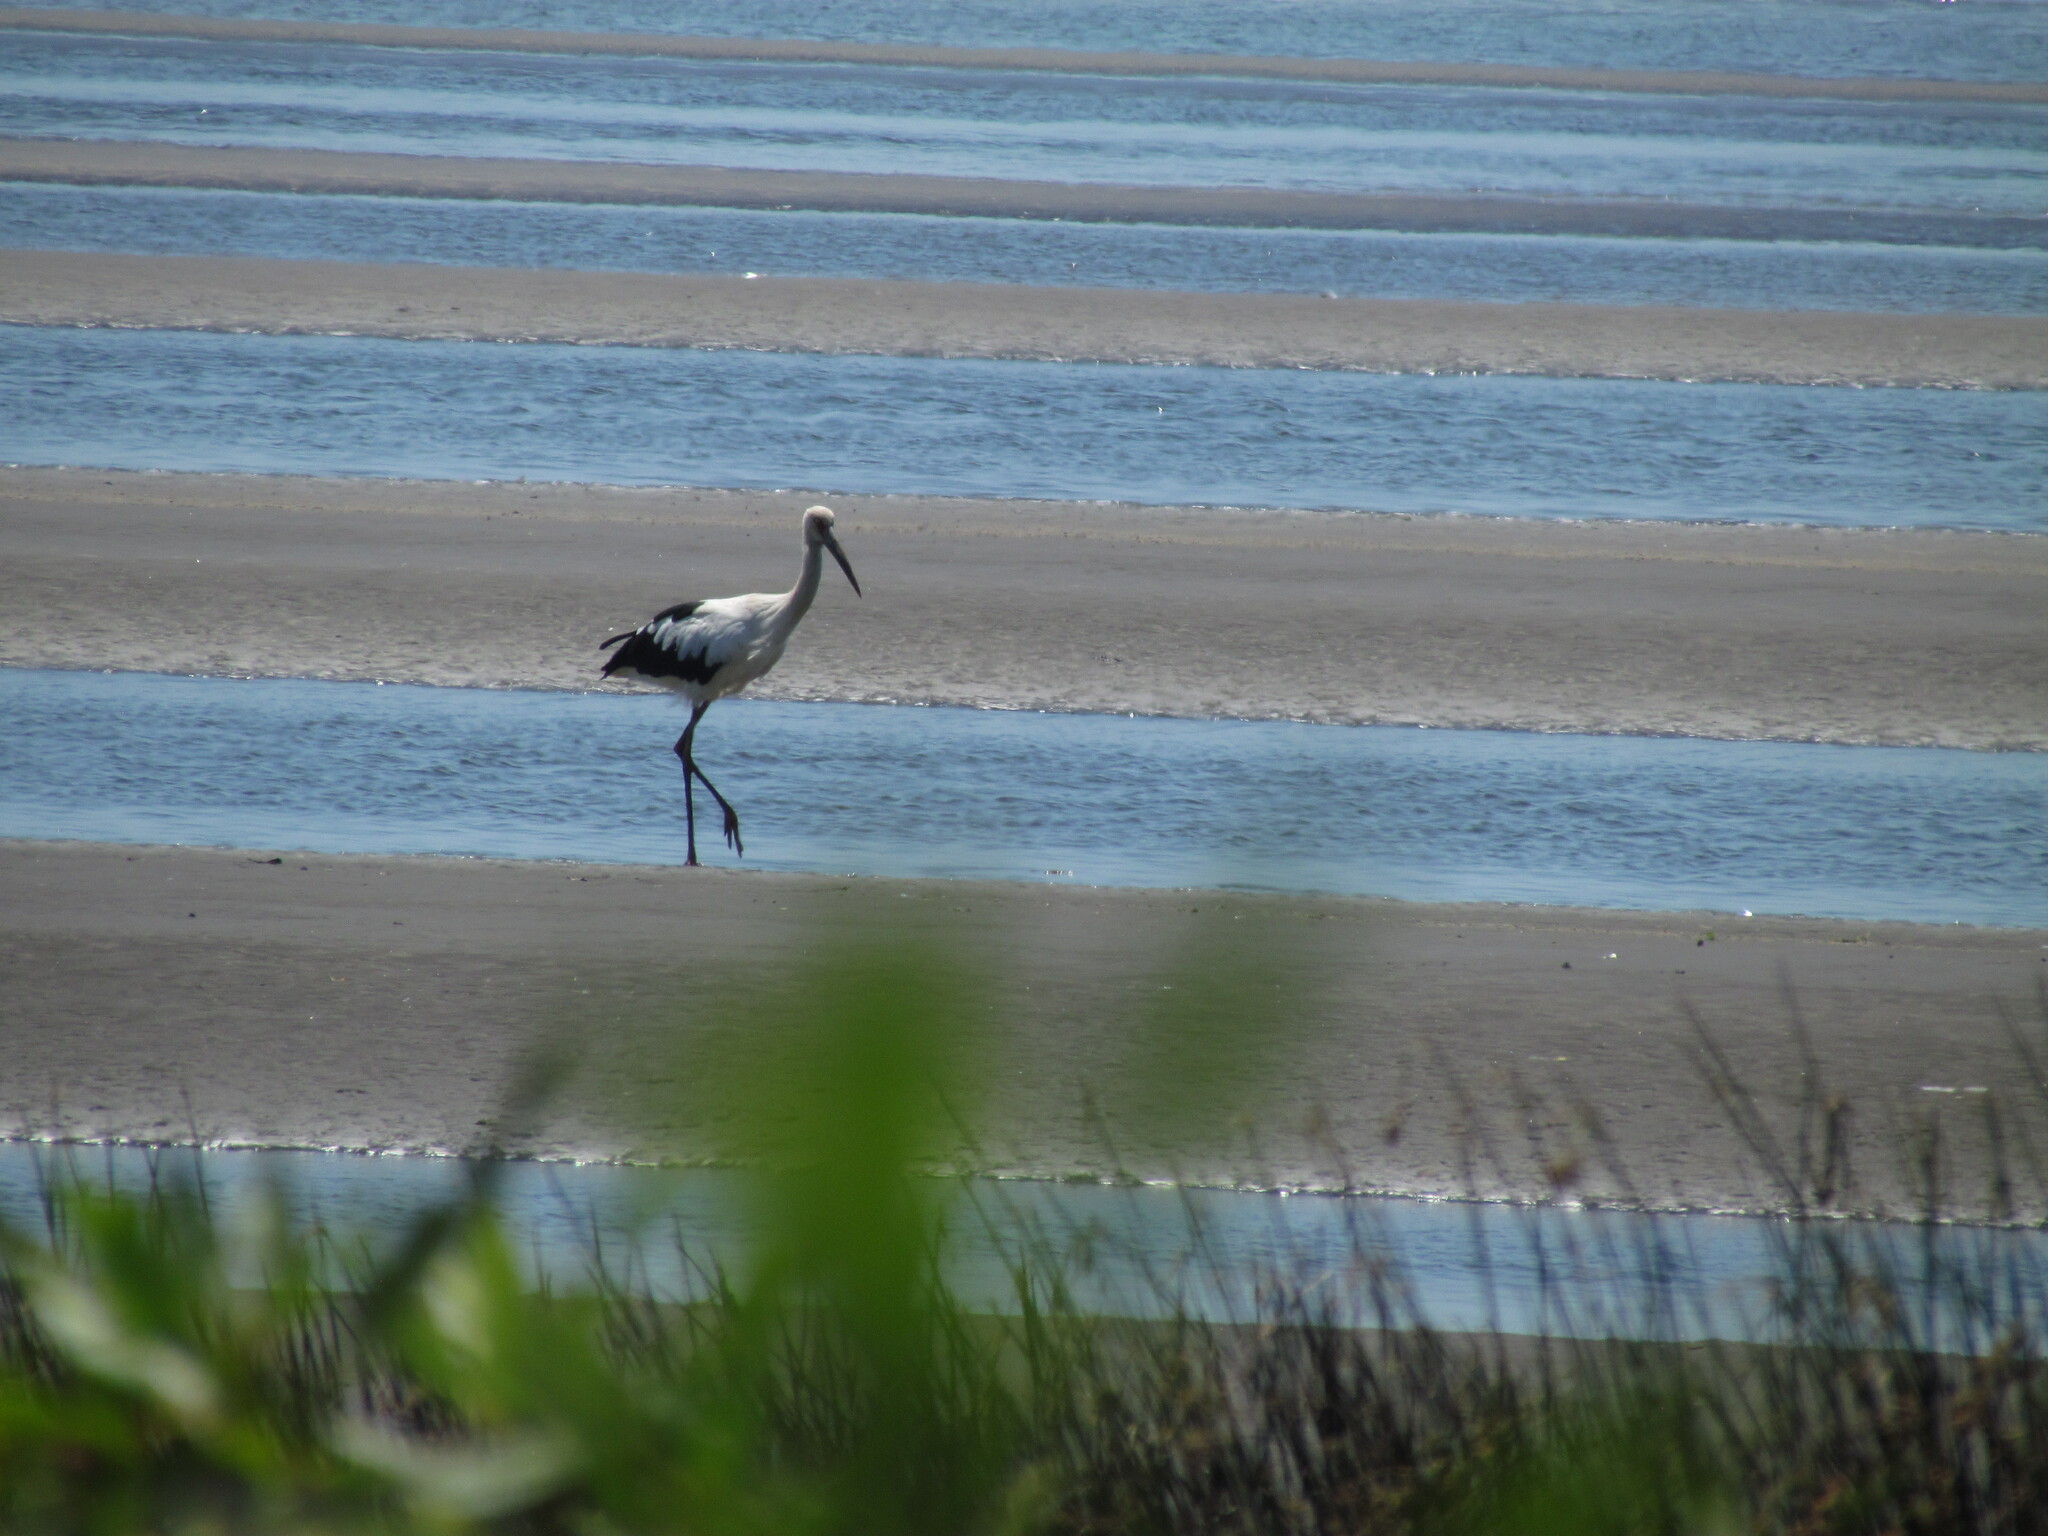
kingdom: Animalia
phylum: Chordata
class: Aves
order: Ciconiiformes
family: Ciconiidae
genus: Ciconia
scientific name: Ciconia maguari
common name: Maguari stork
